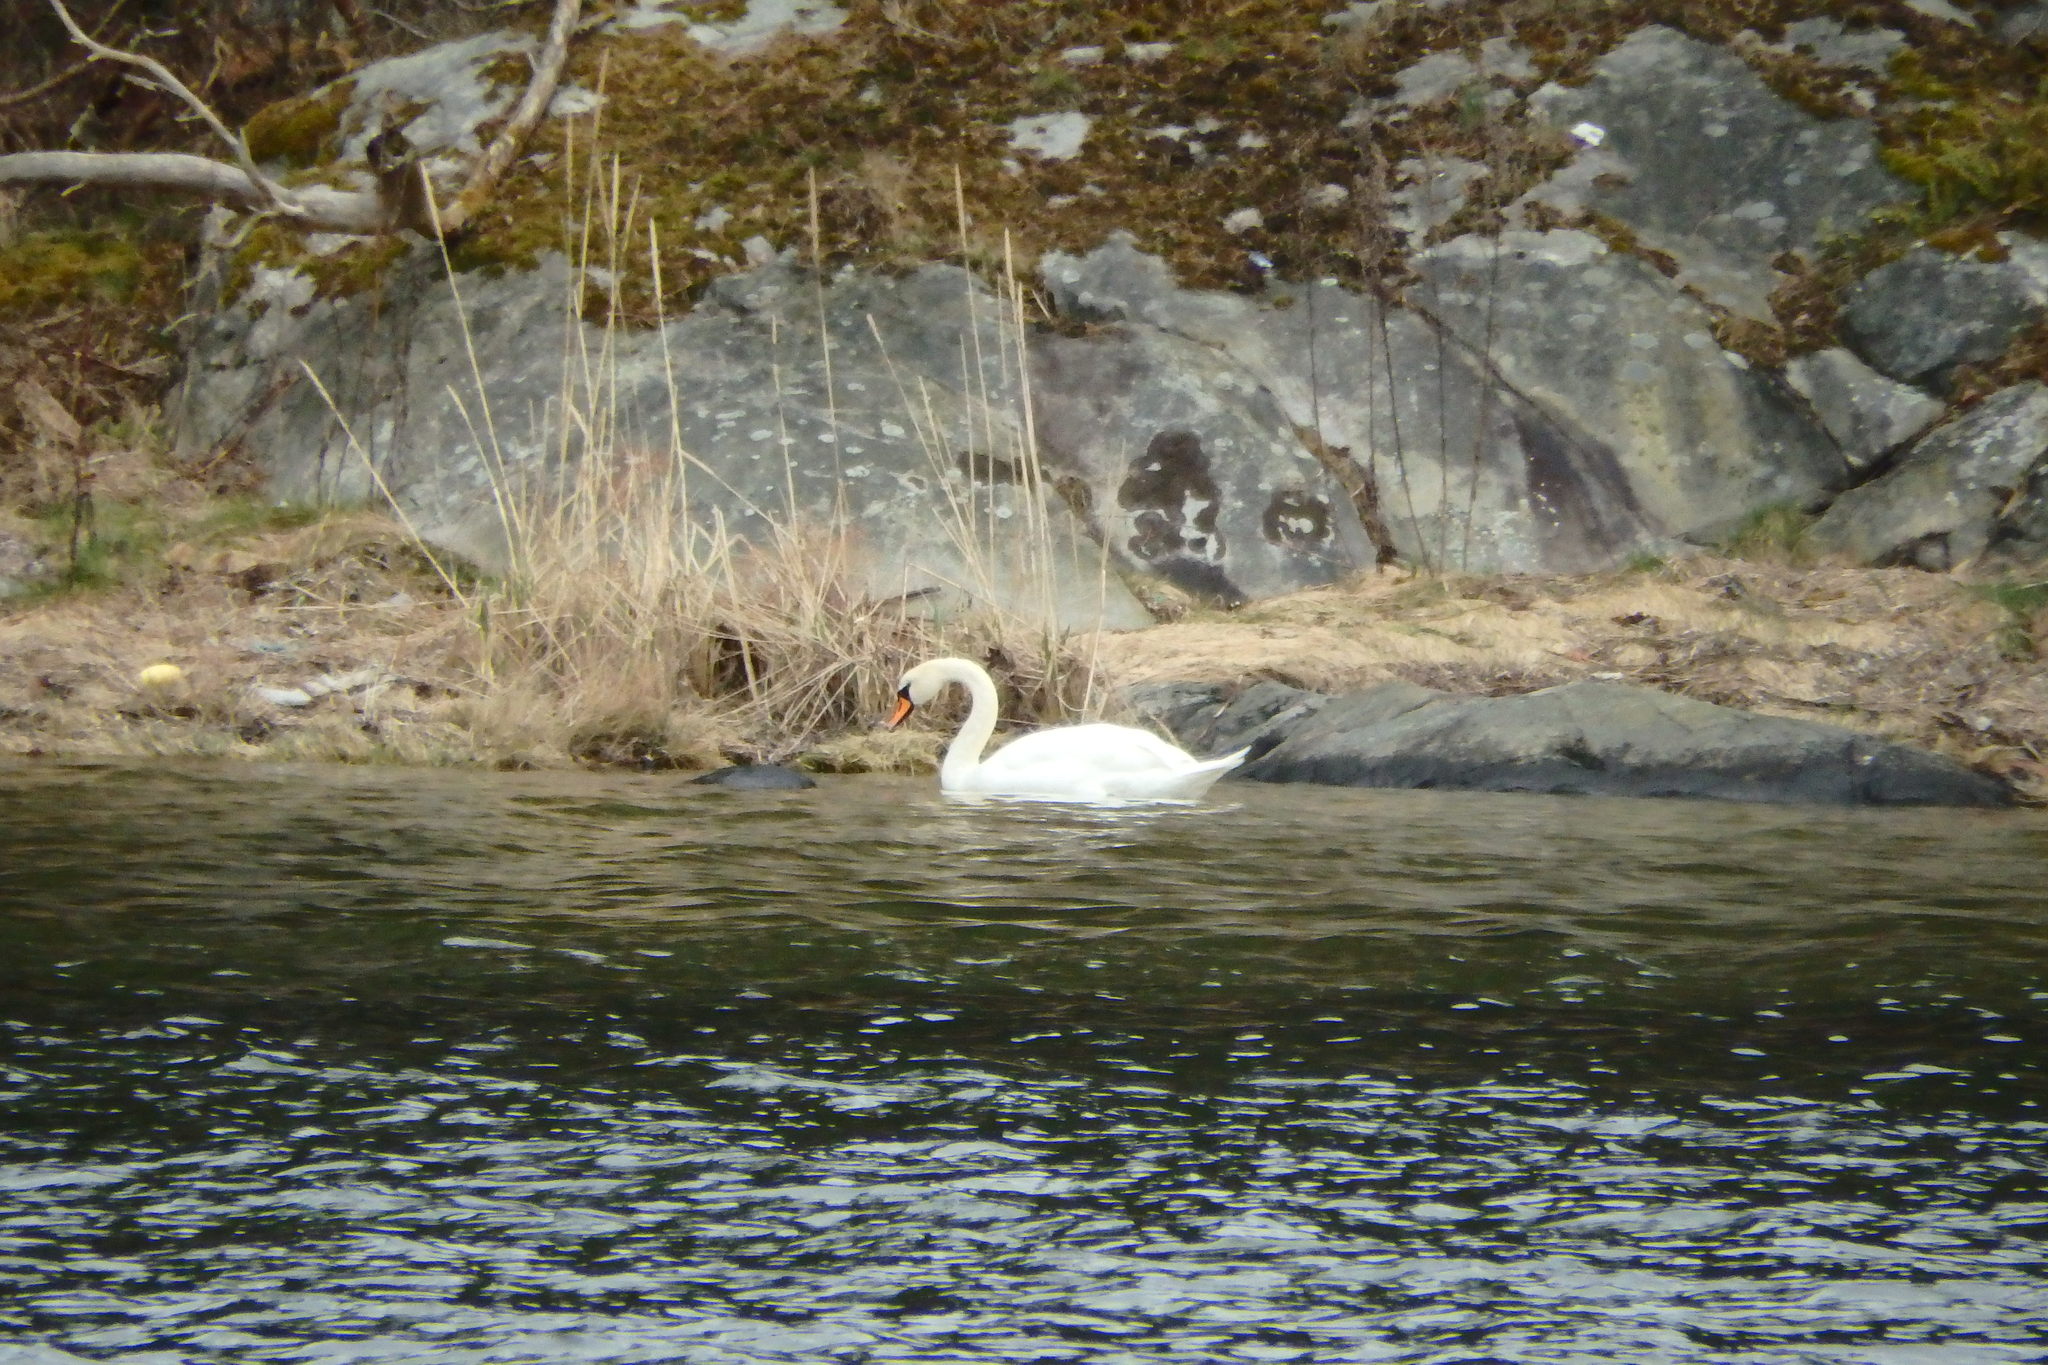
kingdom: Animalia
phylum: Chordata
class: Aves
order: Anseriformes
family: Anatidae
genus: Cygnus
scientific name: Cygnus olor
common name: Mute swan
